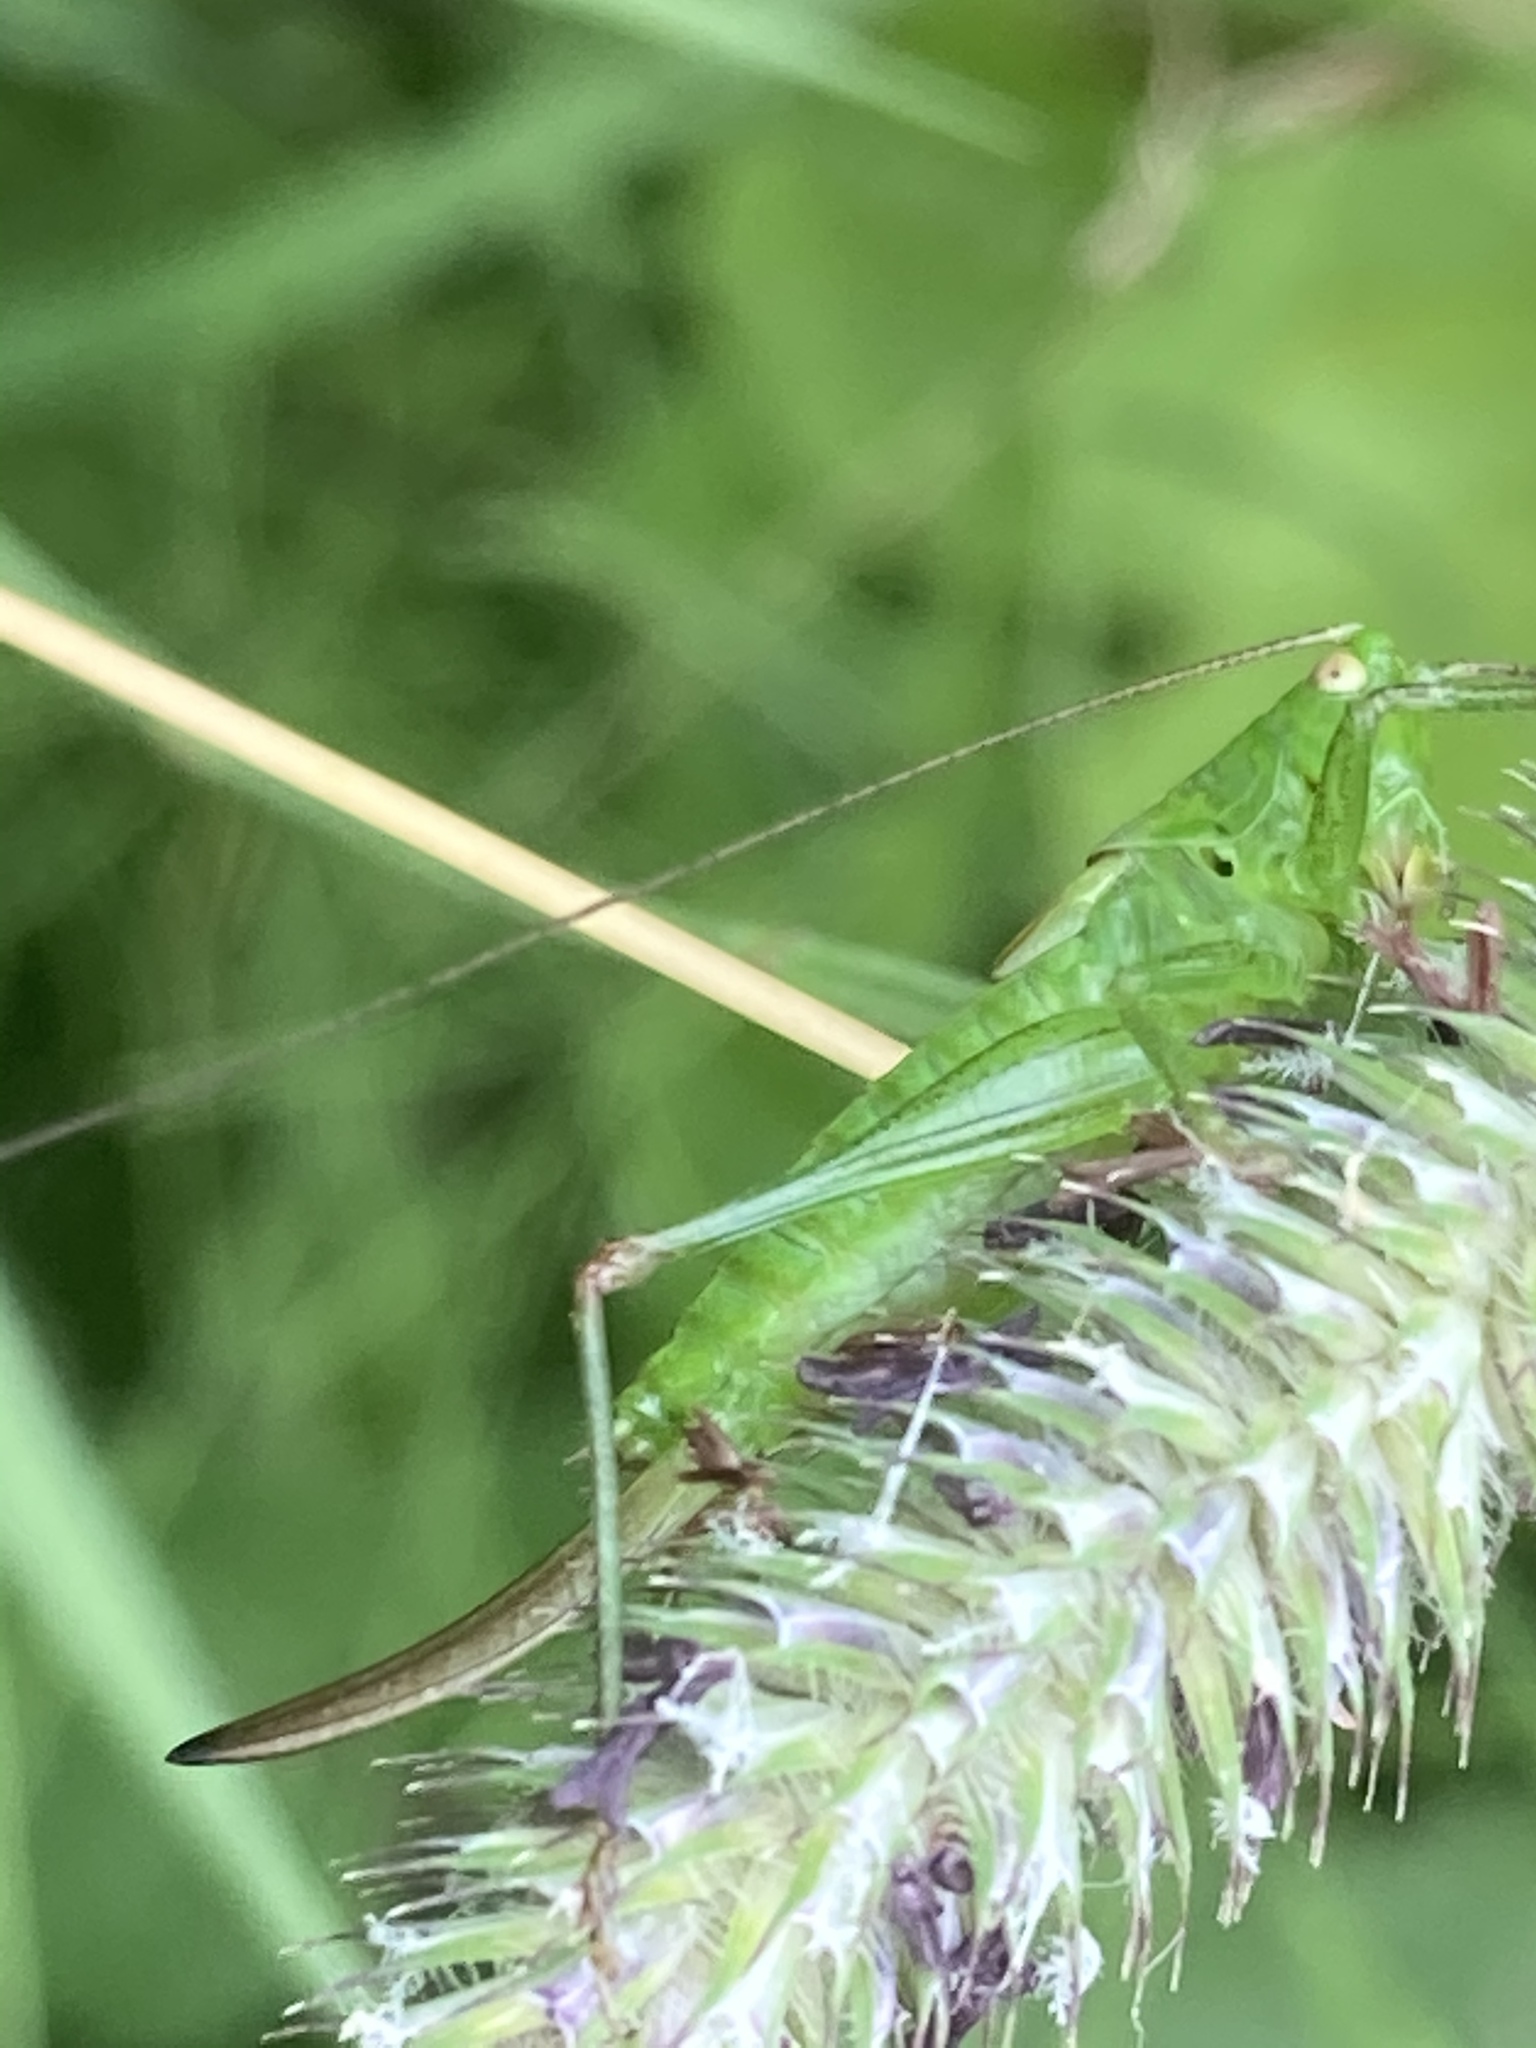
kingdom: Animalia
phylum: Arthropoda
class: Insecta
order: Orthoptera
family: Tettigoniidae
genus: Conocephalus
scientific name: Conocephalus dorsalis
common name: Short-winged conehead
